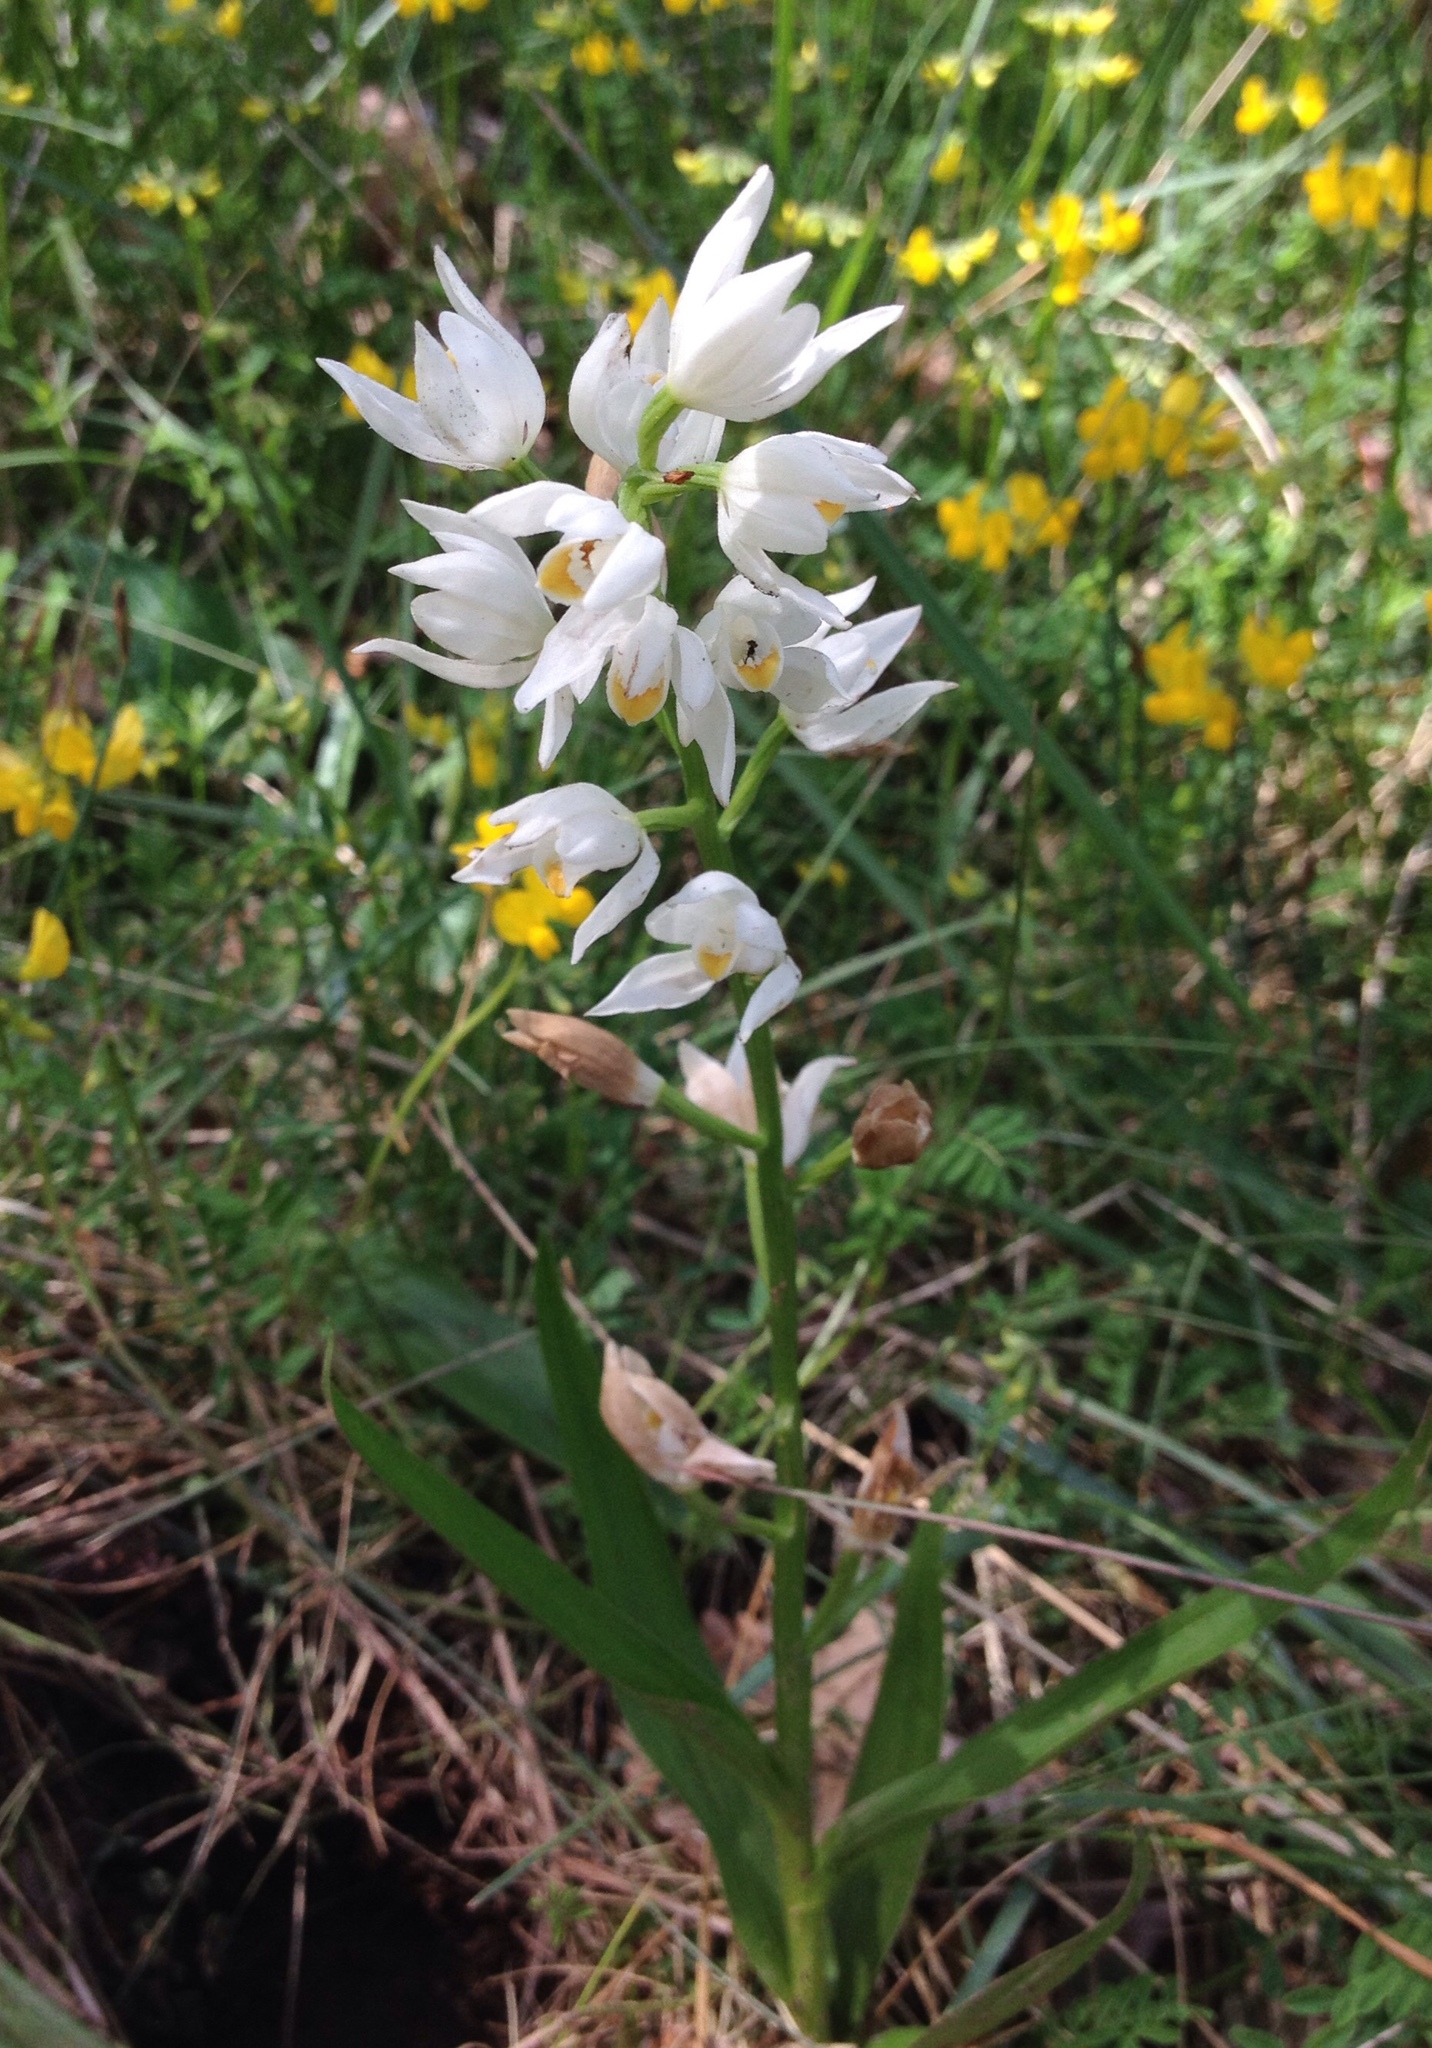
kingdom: Plantae
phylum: Tracheophyta
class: Liliopsida
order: Asparagales
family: Orchidaceae
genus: Cephalanthera
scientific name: Cephalanthera longifolia
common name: Narrow-leaved helleborine
